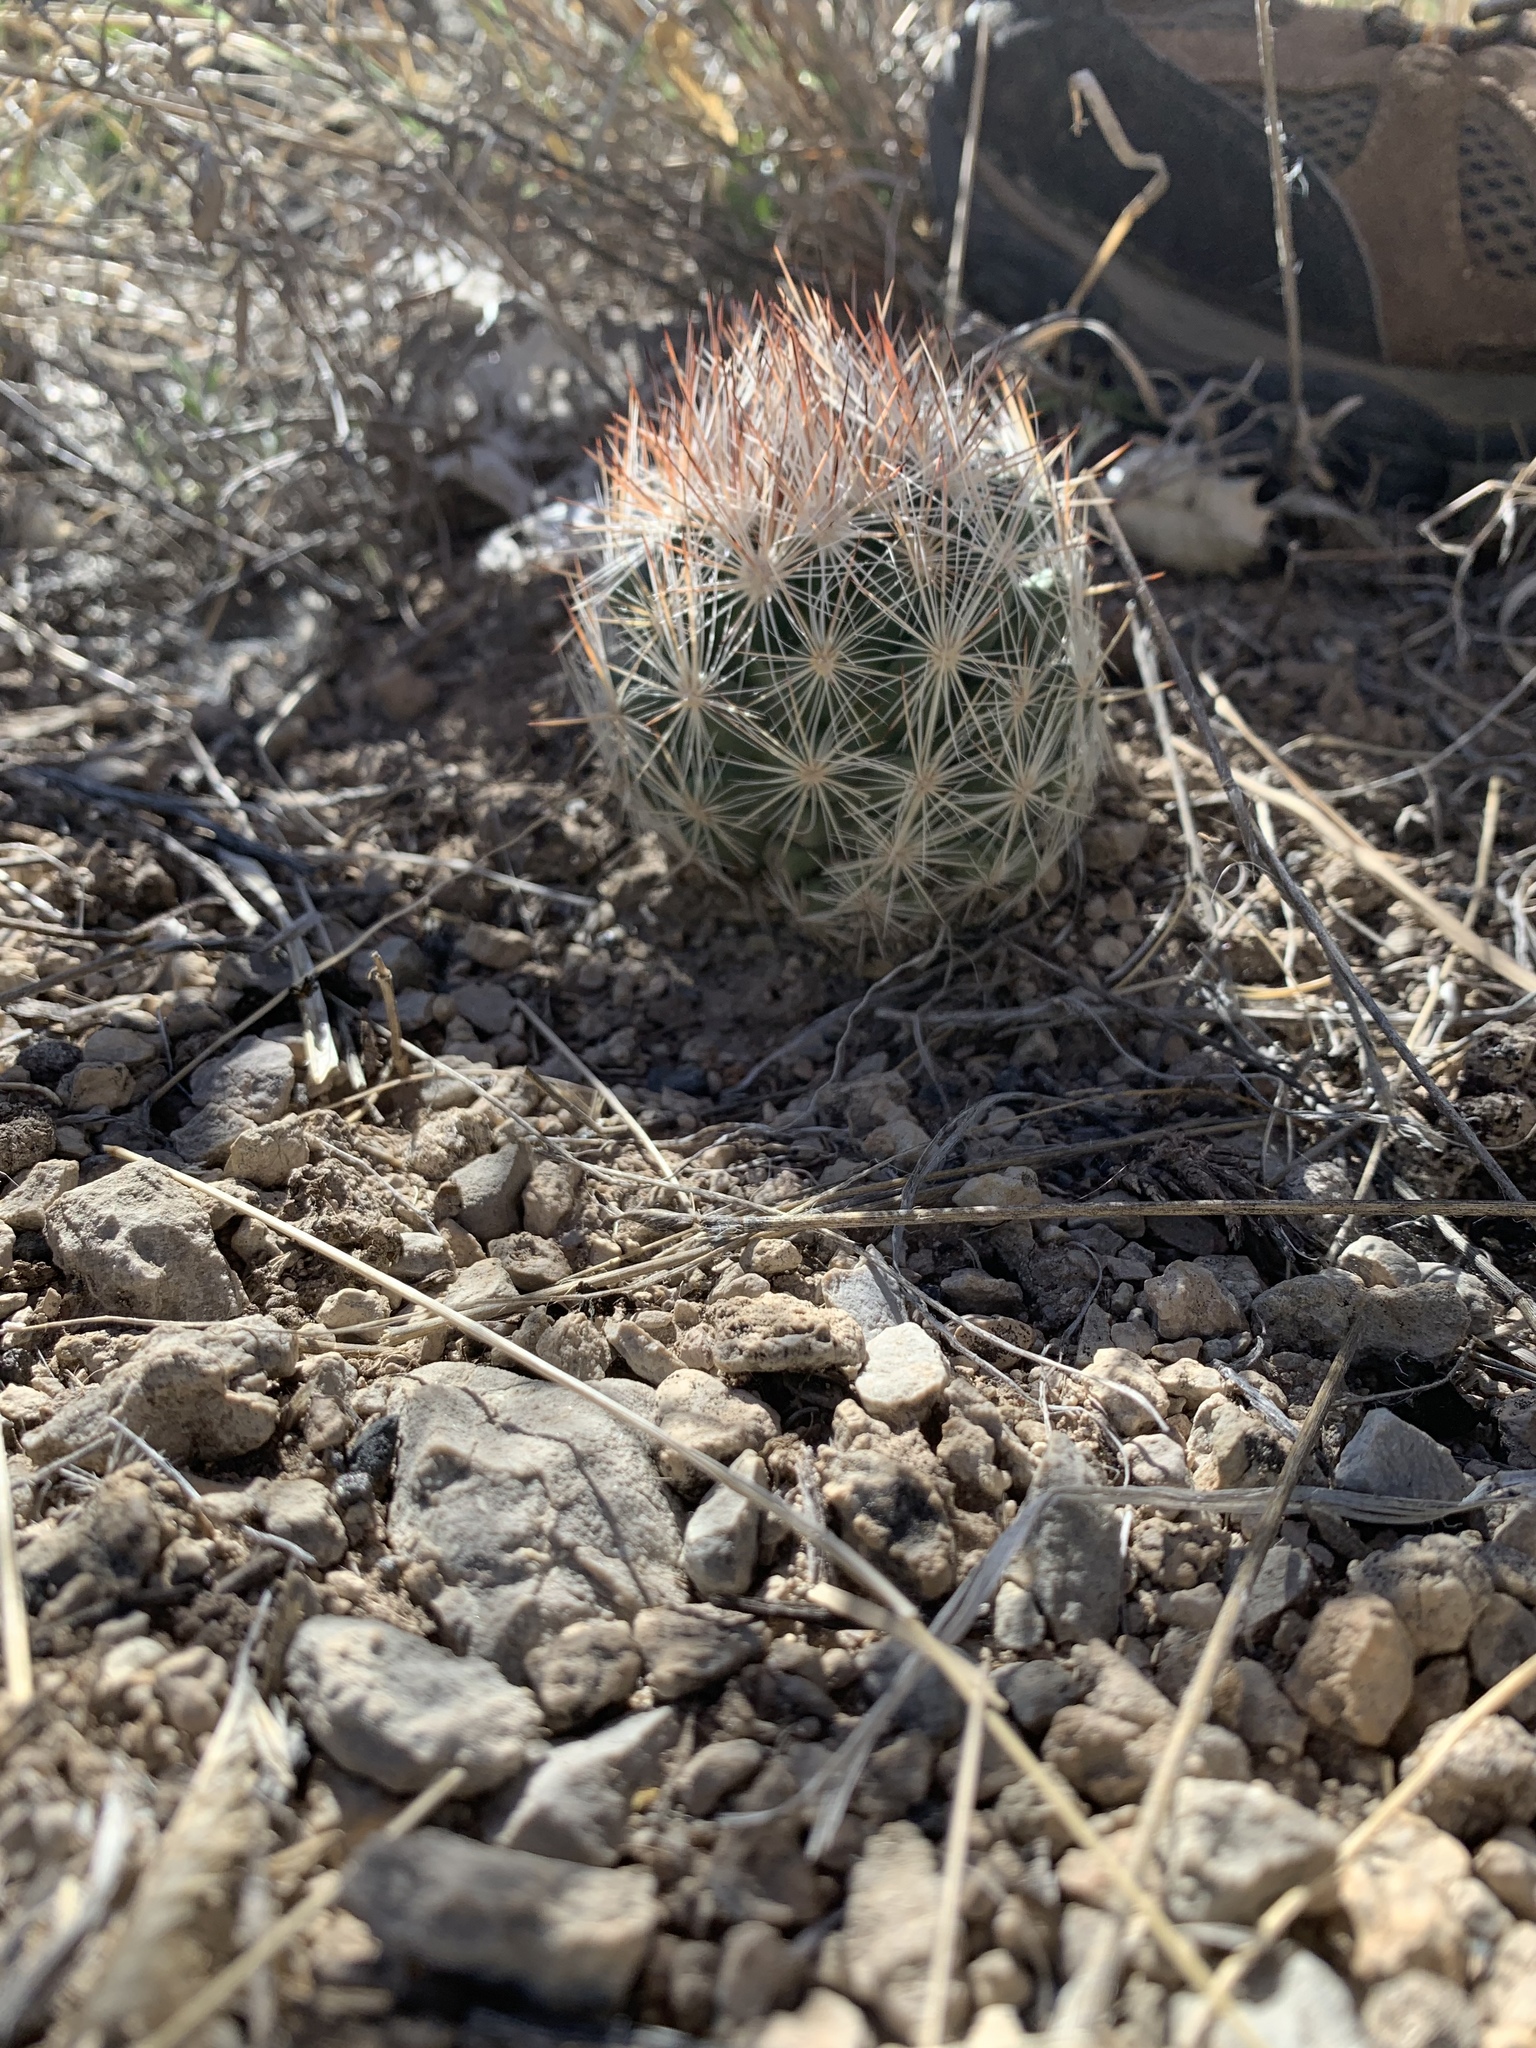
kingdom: Plantae
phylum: Tracheophyta
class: Magnoliopsida
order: Caryophyllales
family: Cactaceae
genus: Pelecyphora
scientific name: Pelecyphora vivipara
